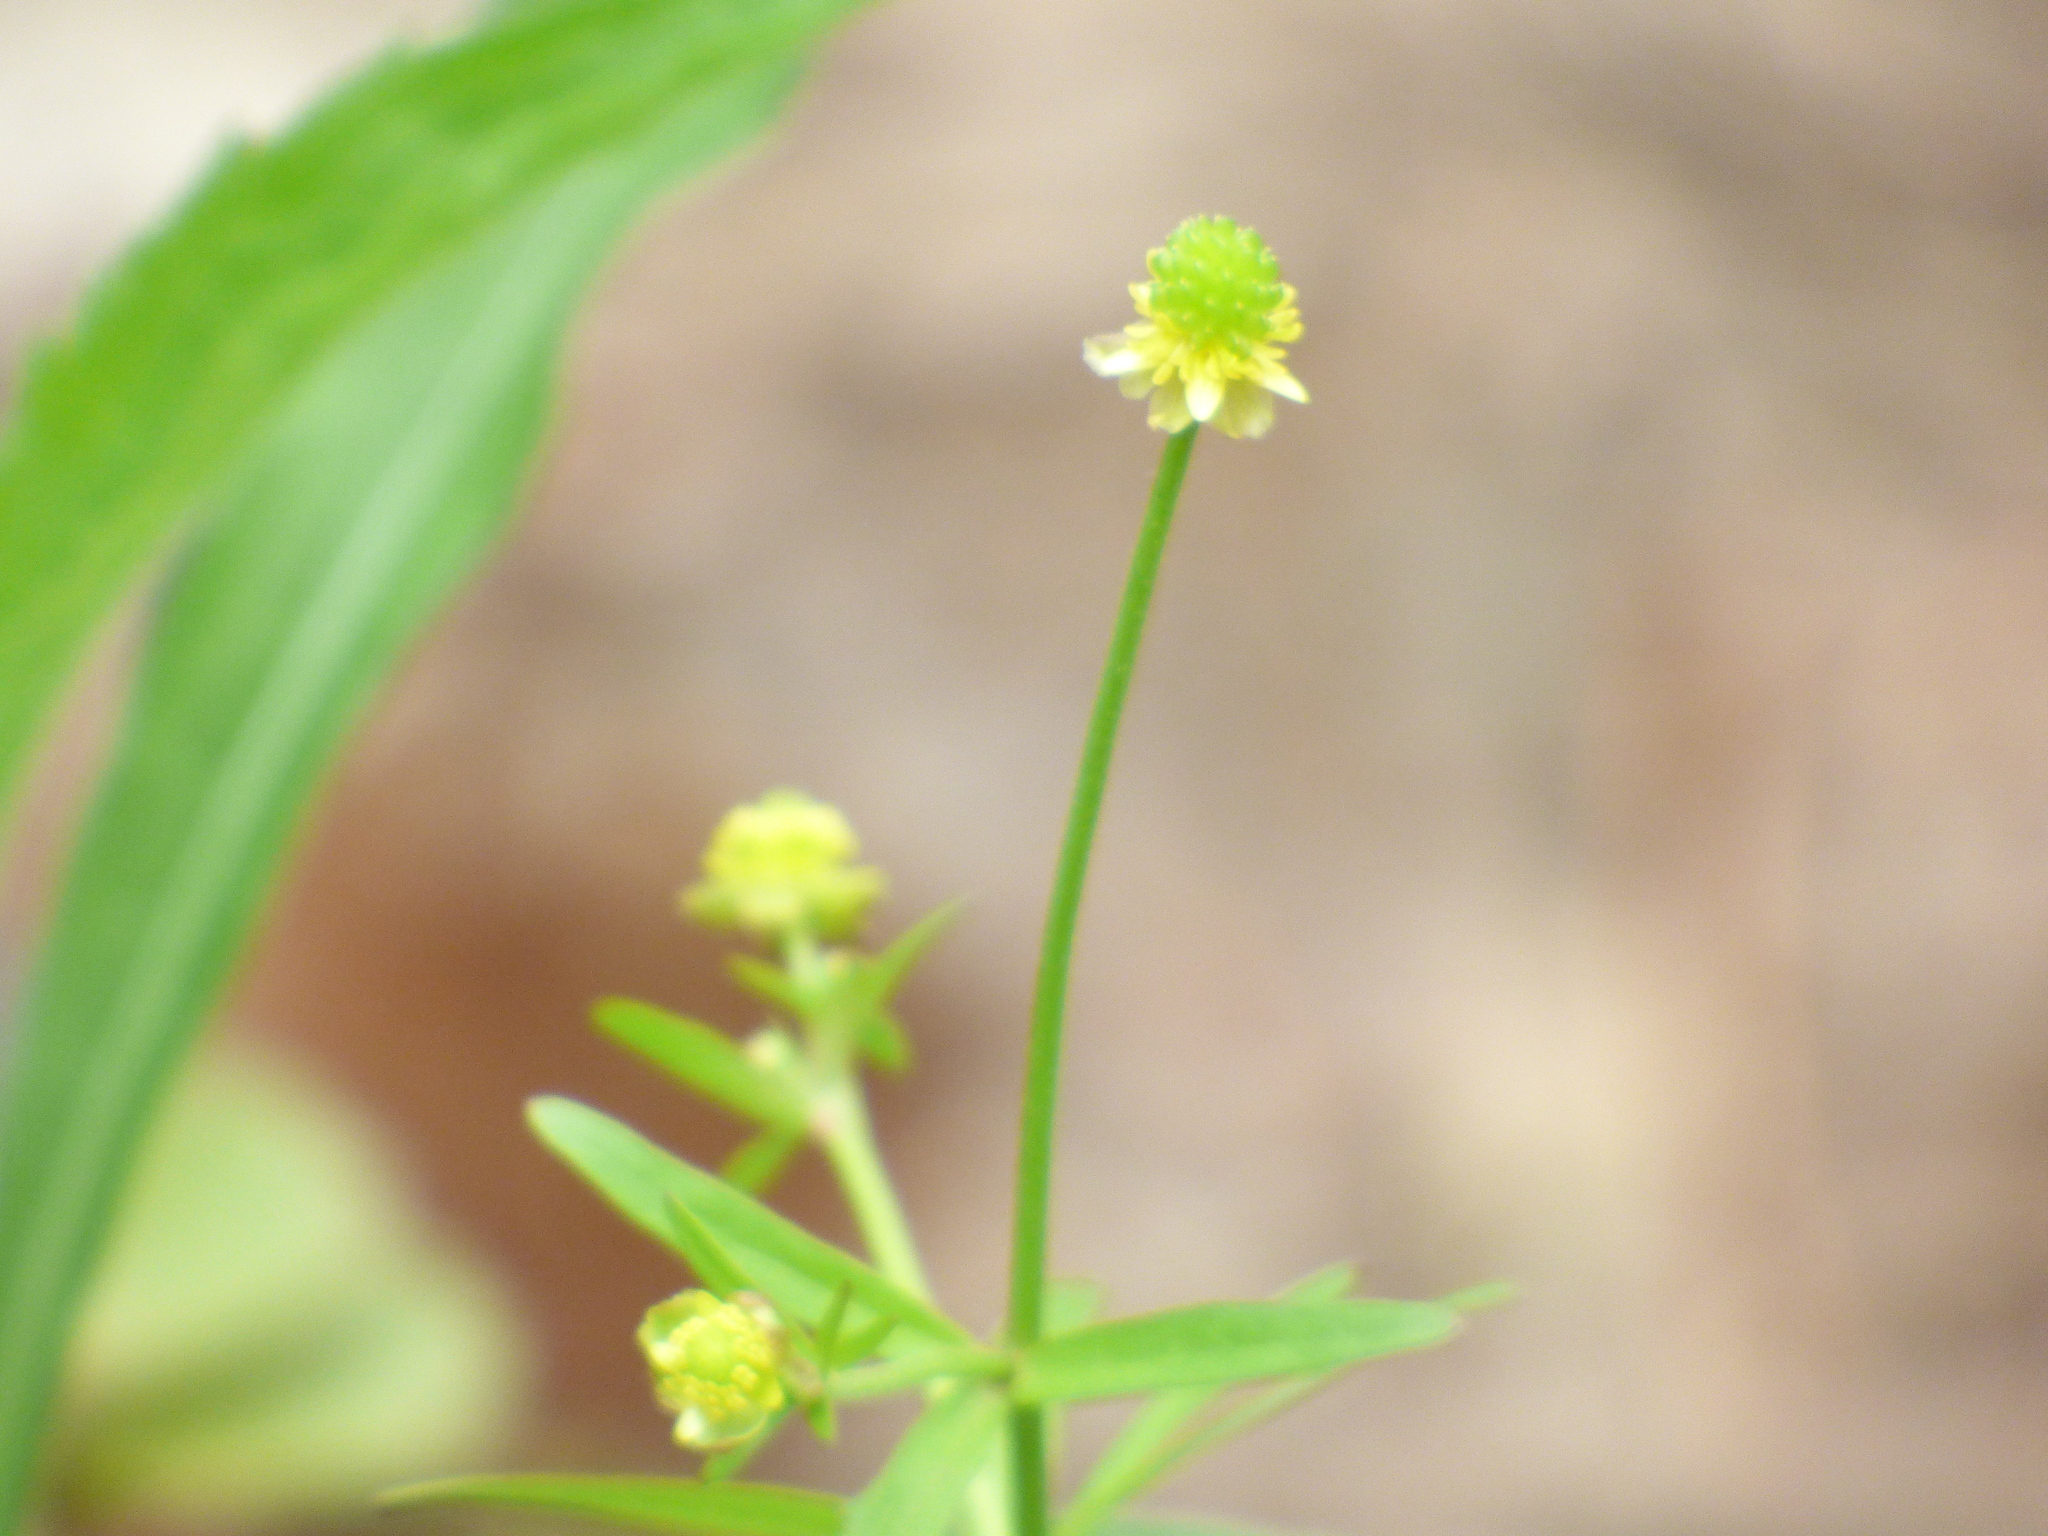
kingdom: Plantae
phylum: Tracheophyta
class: Magnoliopsida
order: Ranunculales
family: Ranunculaceae
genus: Ranunculus
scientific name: Ranunculus abortivus
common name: Early wood buttercup
